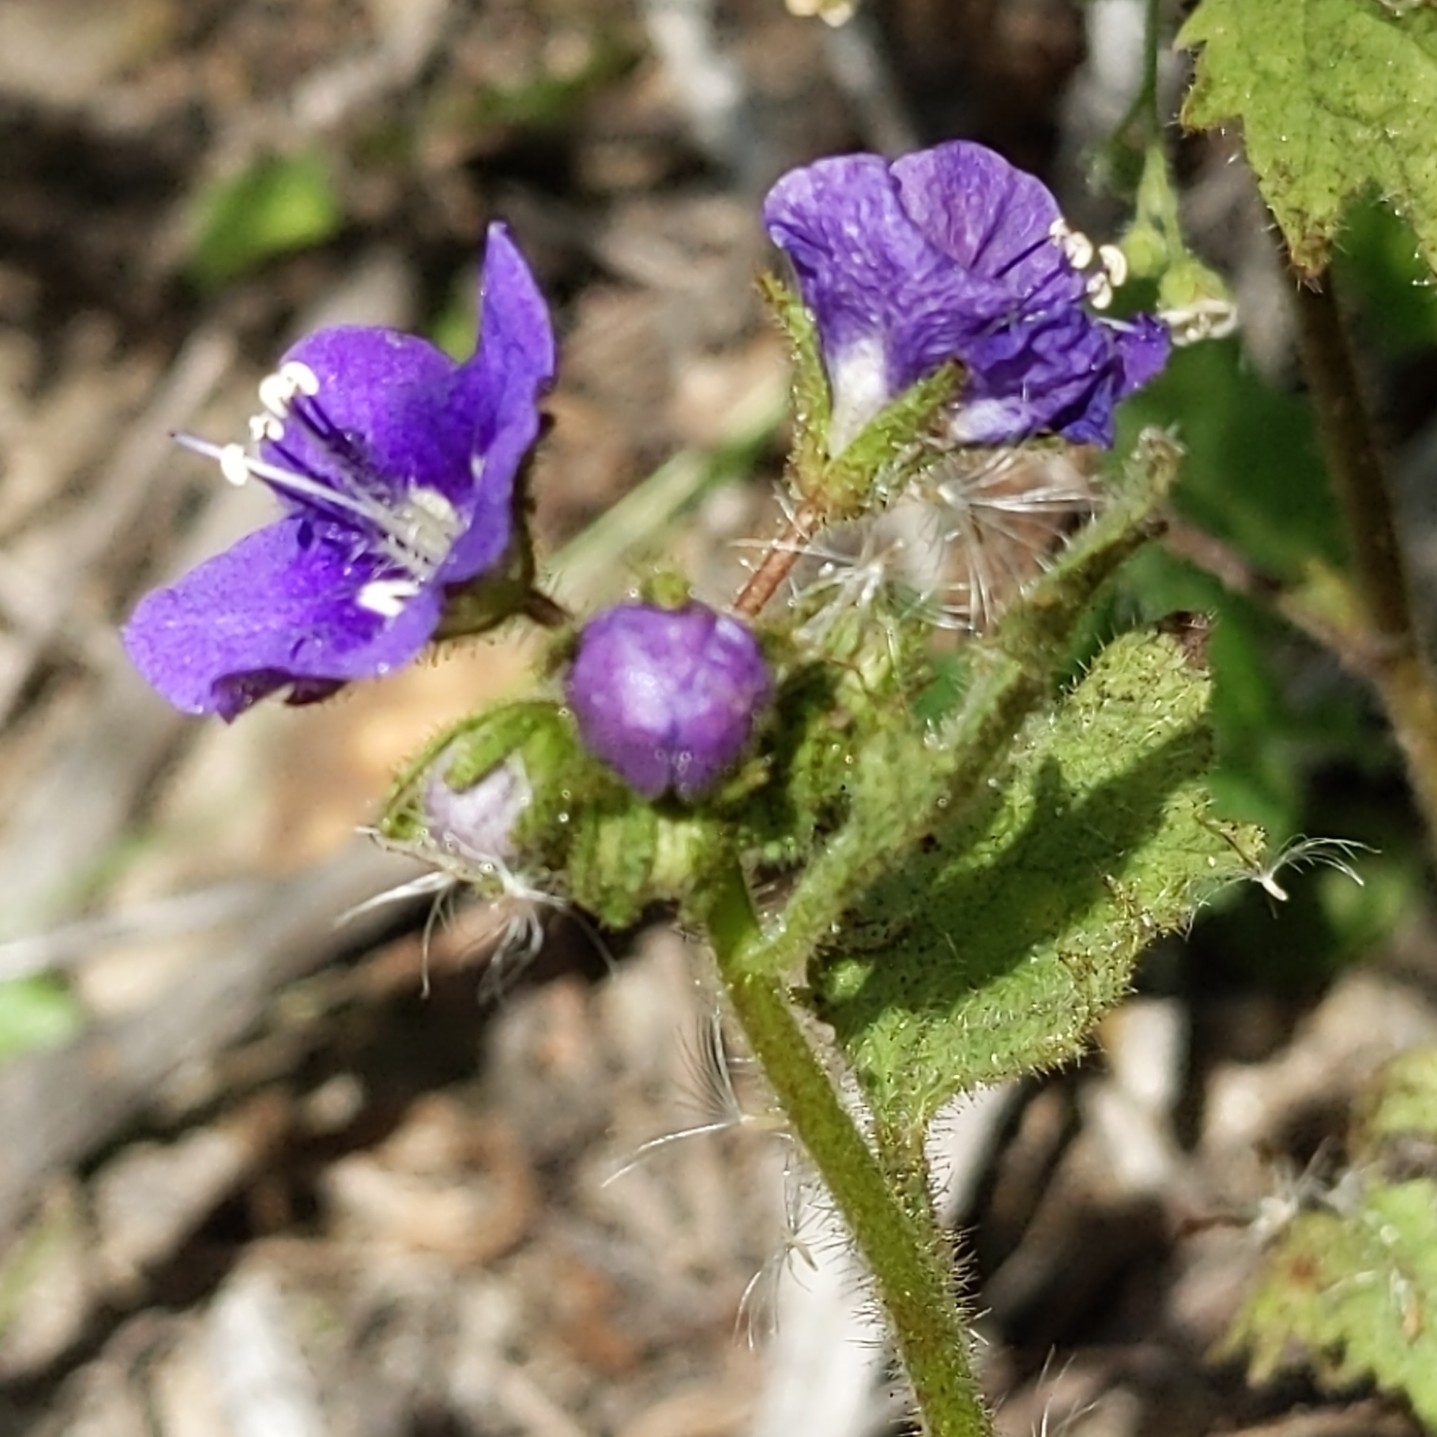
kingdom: Plantae
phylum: Tracheophyta
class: Magnoliopsida
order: Boraginales
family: Hydrophyllaceae
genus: Phacelia
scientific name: Phacelia parryi
